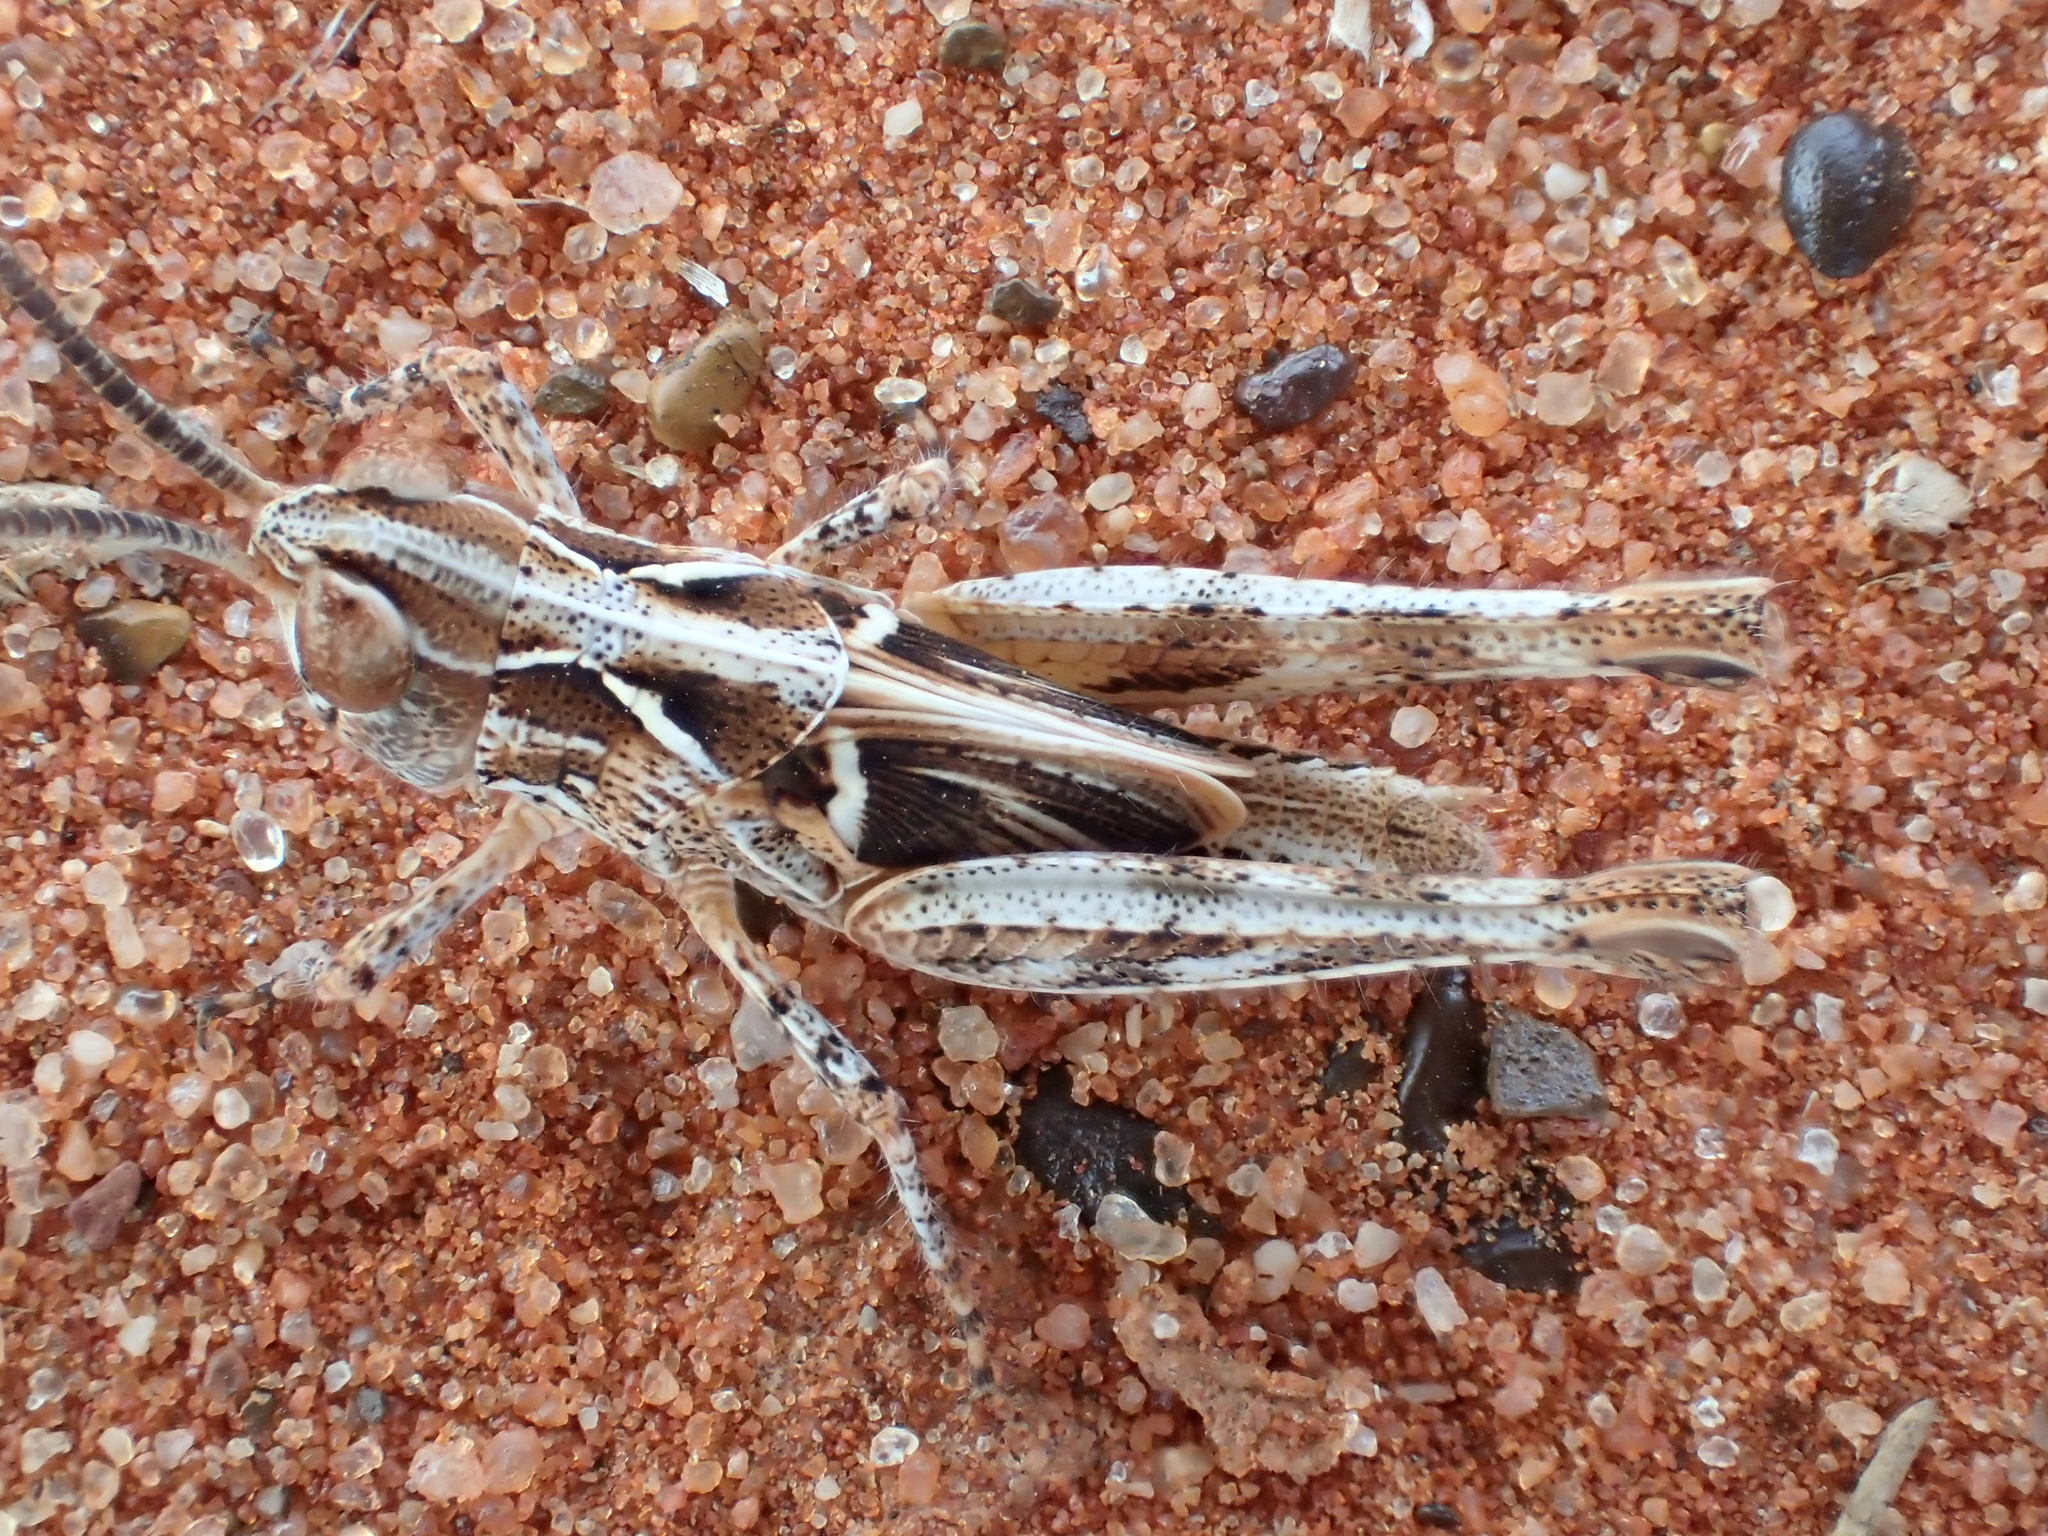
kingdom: Animalia
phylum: Arthropoda
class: Insecta
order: Orthoptera
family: Acrididae
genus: Austroicetes
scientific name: Austroicetes tricolor
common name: Northern austroicetes
